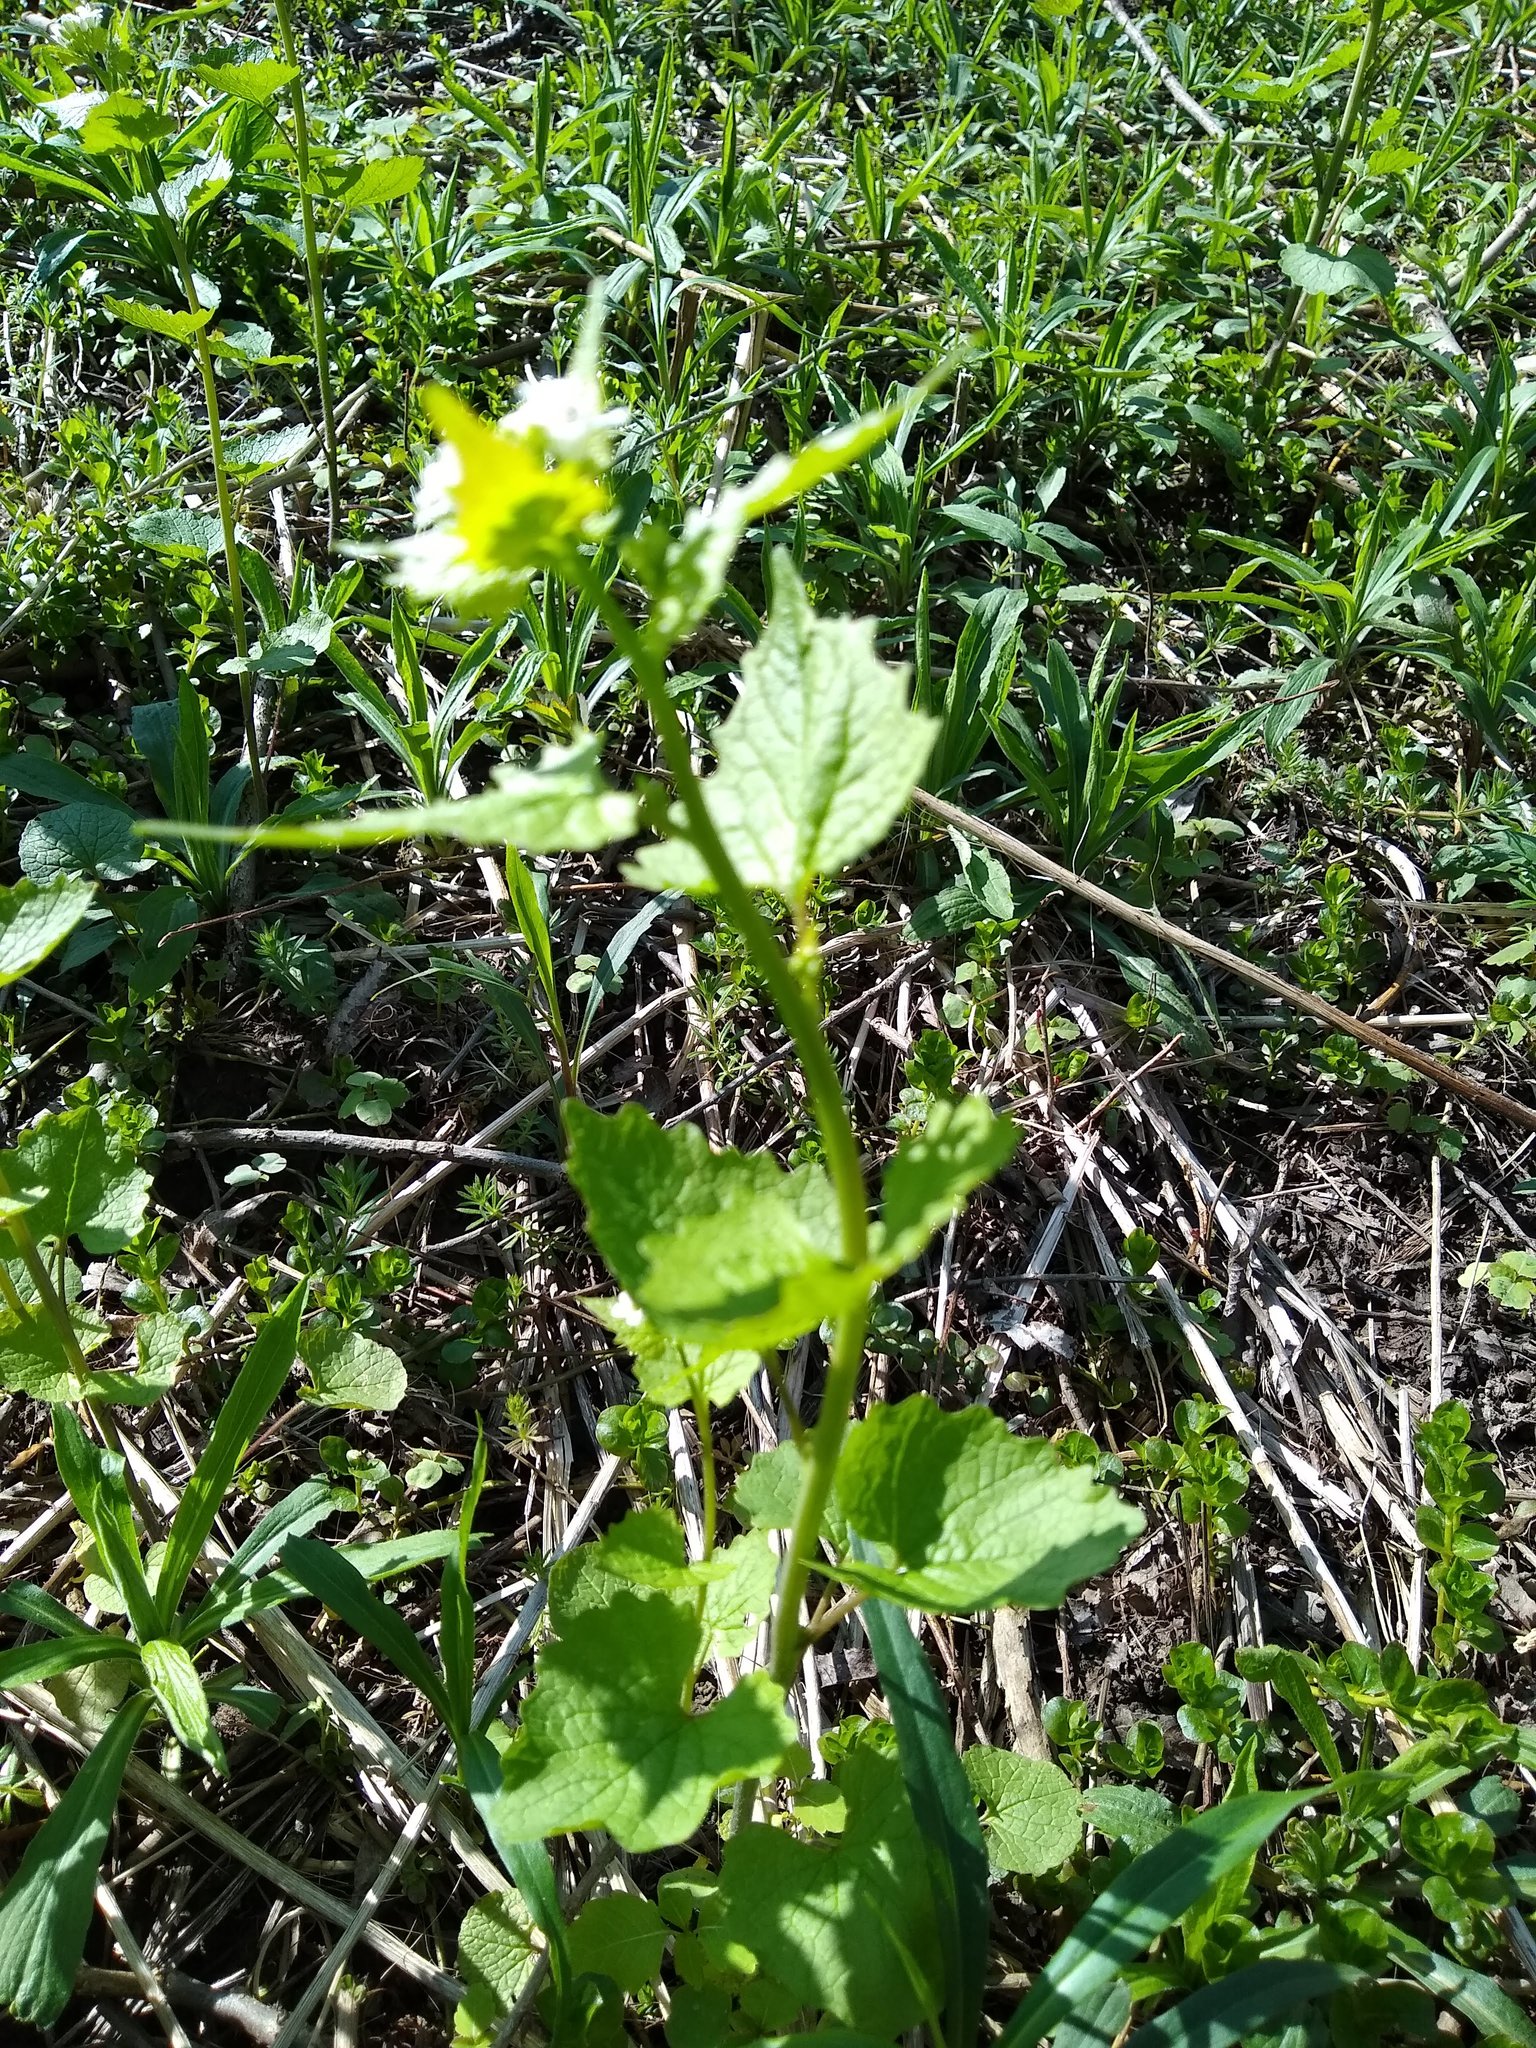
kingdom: Plantae
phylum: Tracheophyta
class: Magnoliopsida
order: Brassicales
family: Brassicaceae
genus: Alliaria
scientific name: Alliaria petiolata
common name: Garlic mustard
